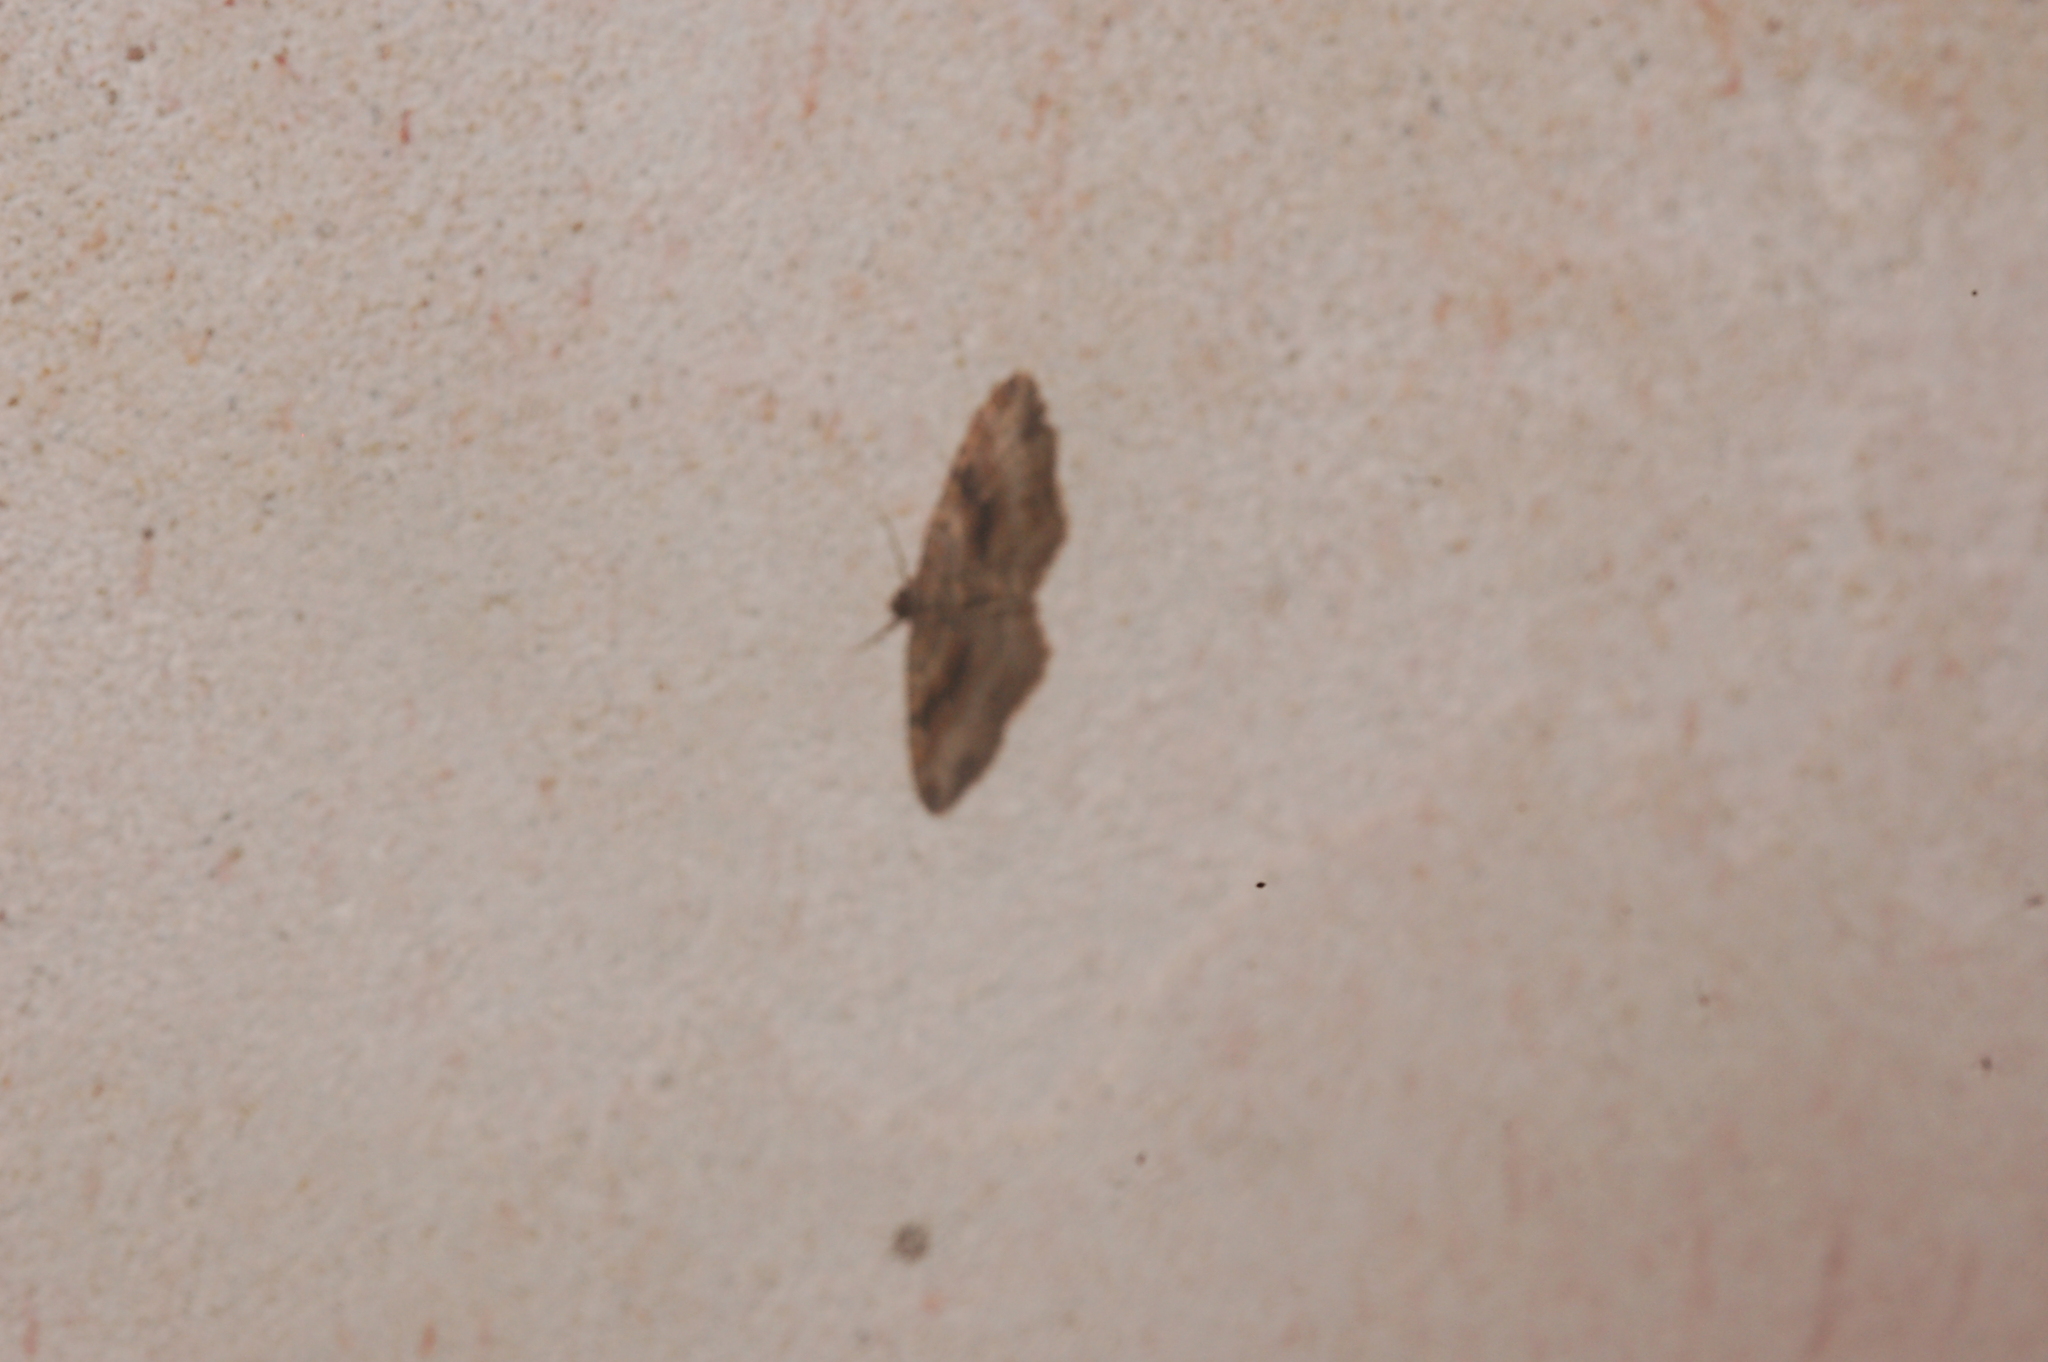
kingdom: Animalia
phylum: Arthropoda
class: Insecta
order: Lepidoptera
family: Geometridae
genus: Costaconvexa
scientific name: Costaconvexa centrostrigaria
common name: Bent-line carpet
